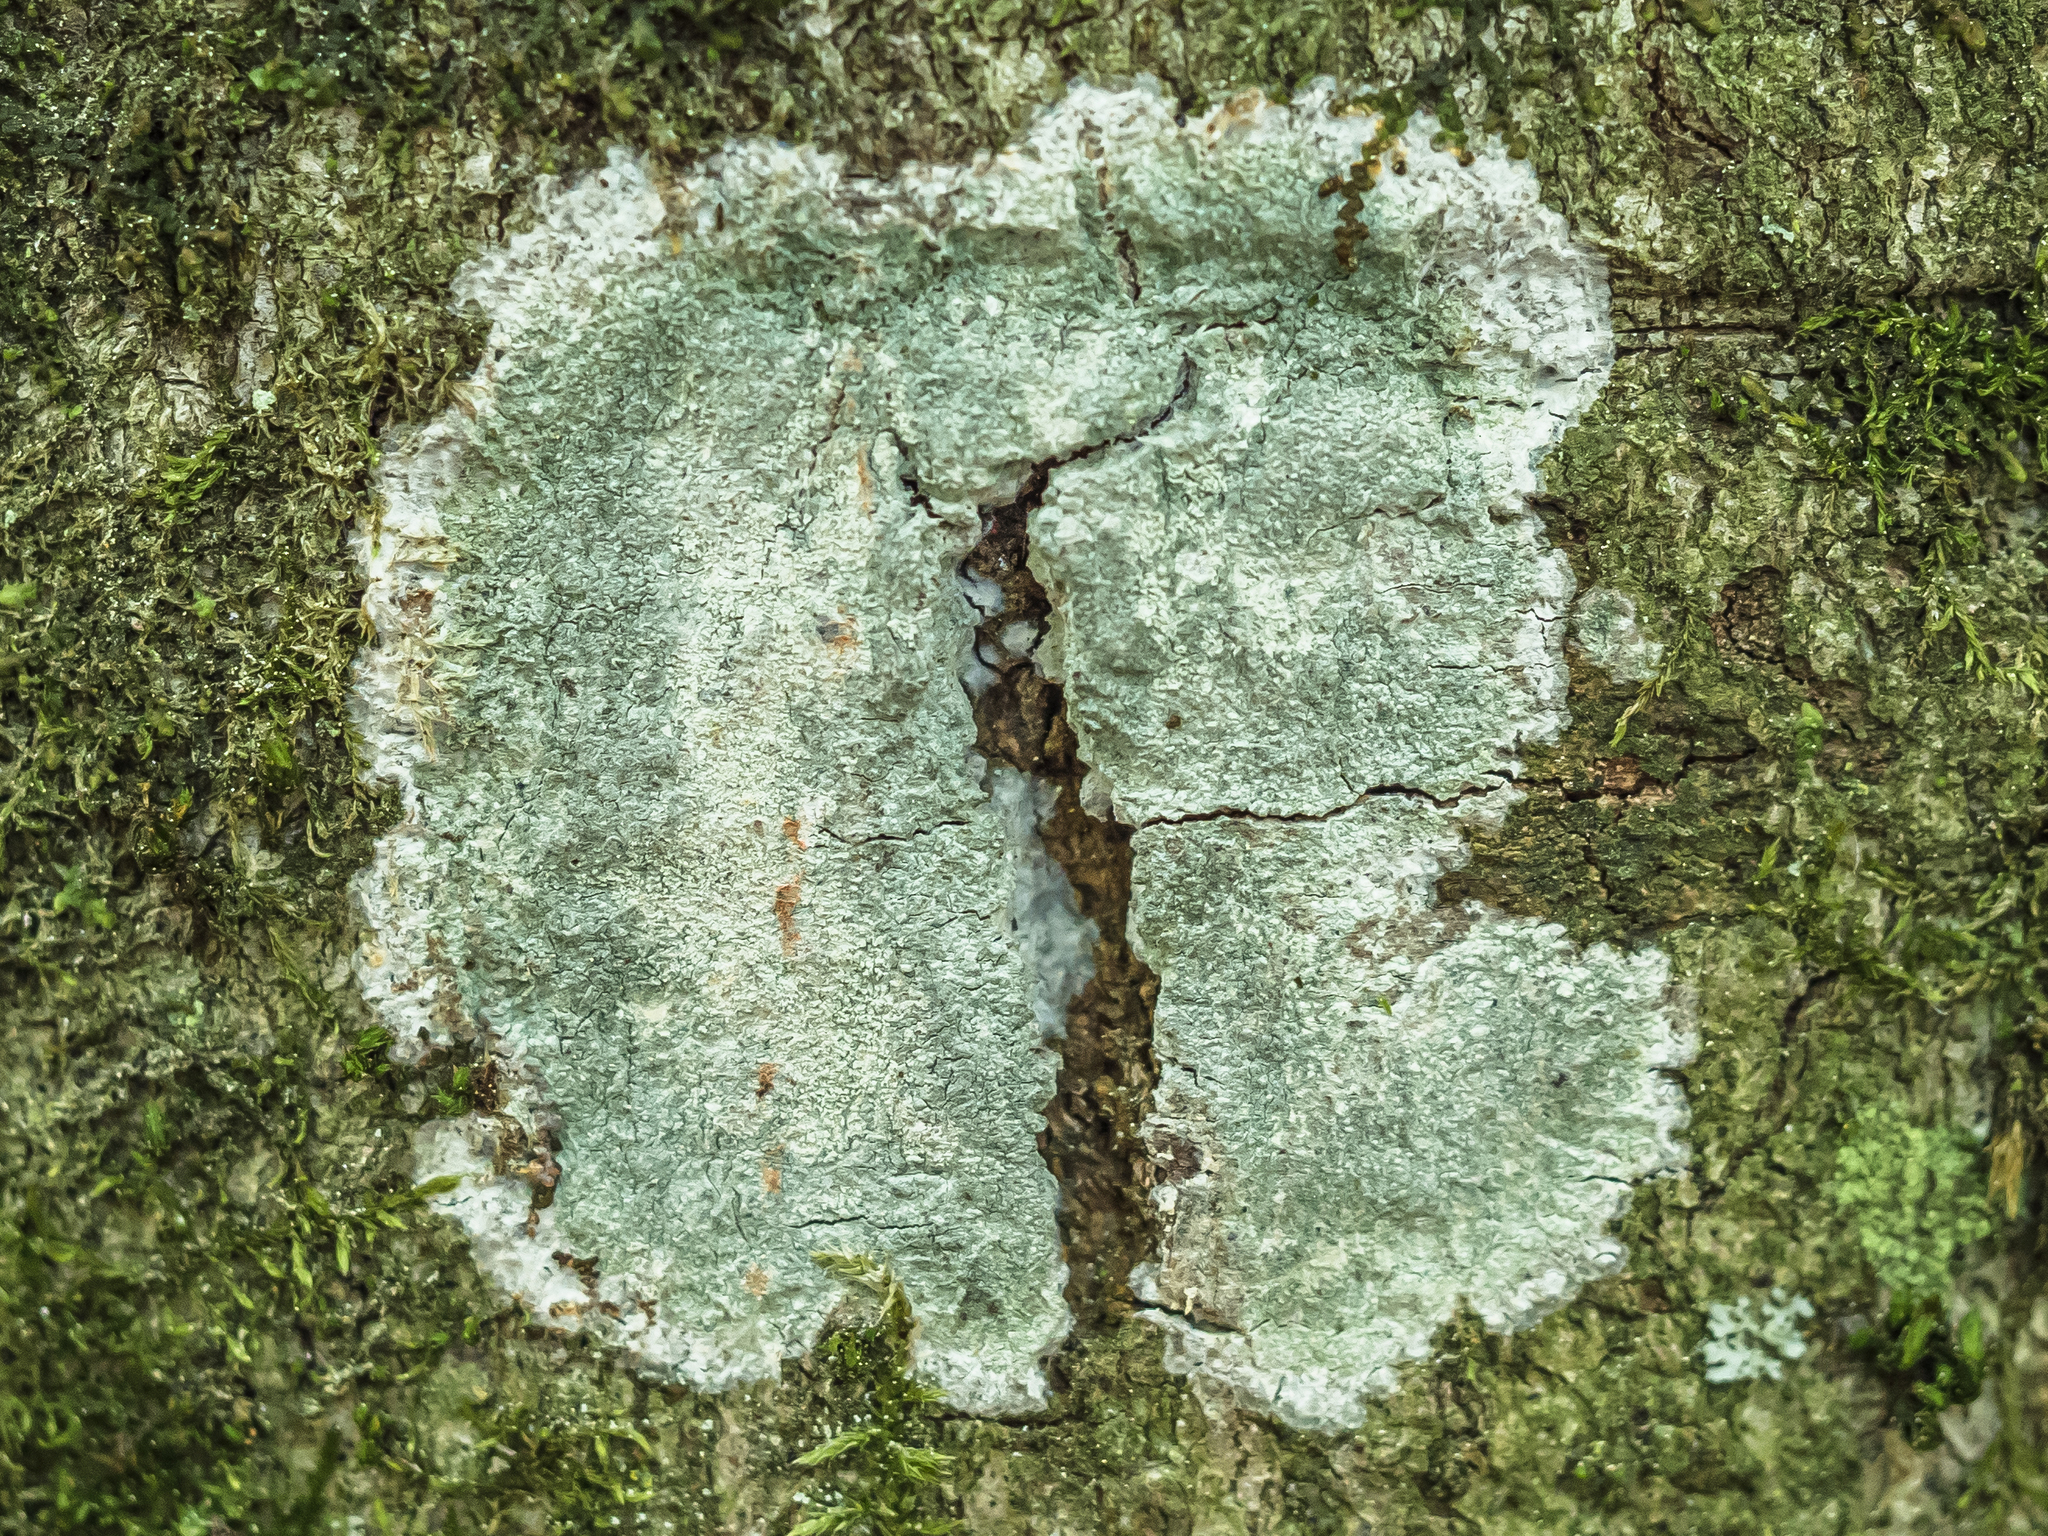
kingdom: Fungi
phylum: Ascomycota
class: Lecanoromycetes
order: Ostropales
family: Phlyctidaceae
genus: Phlyctis
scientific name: Phlyctis argena
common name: Whitewash lichen
